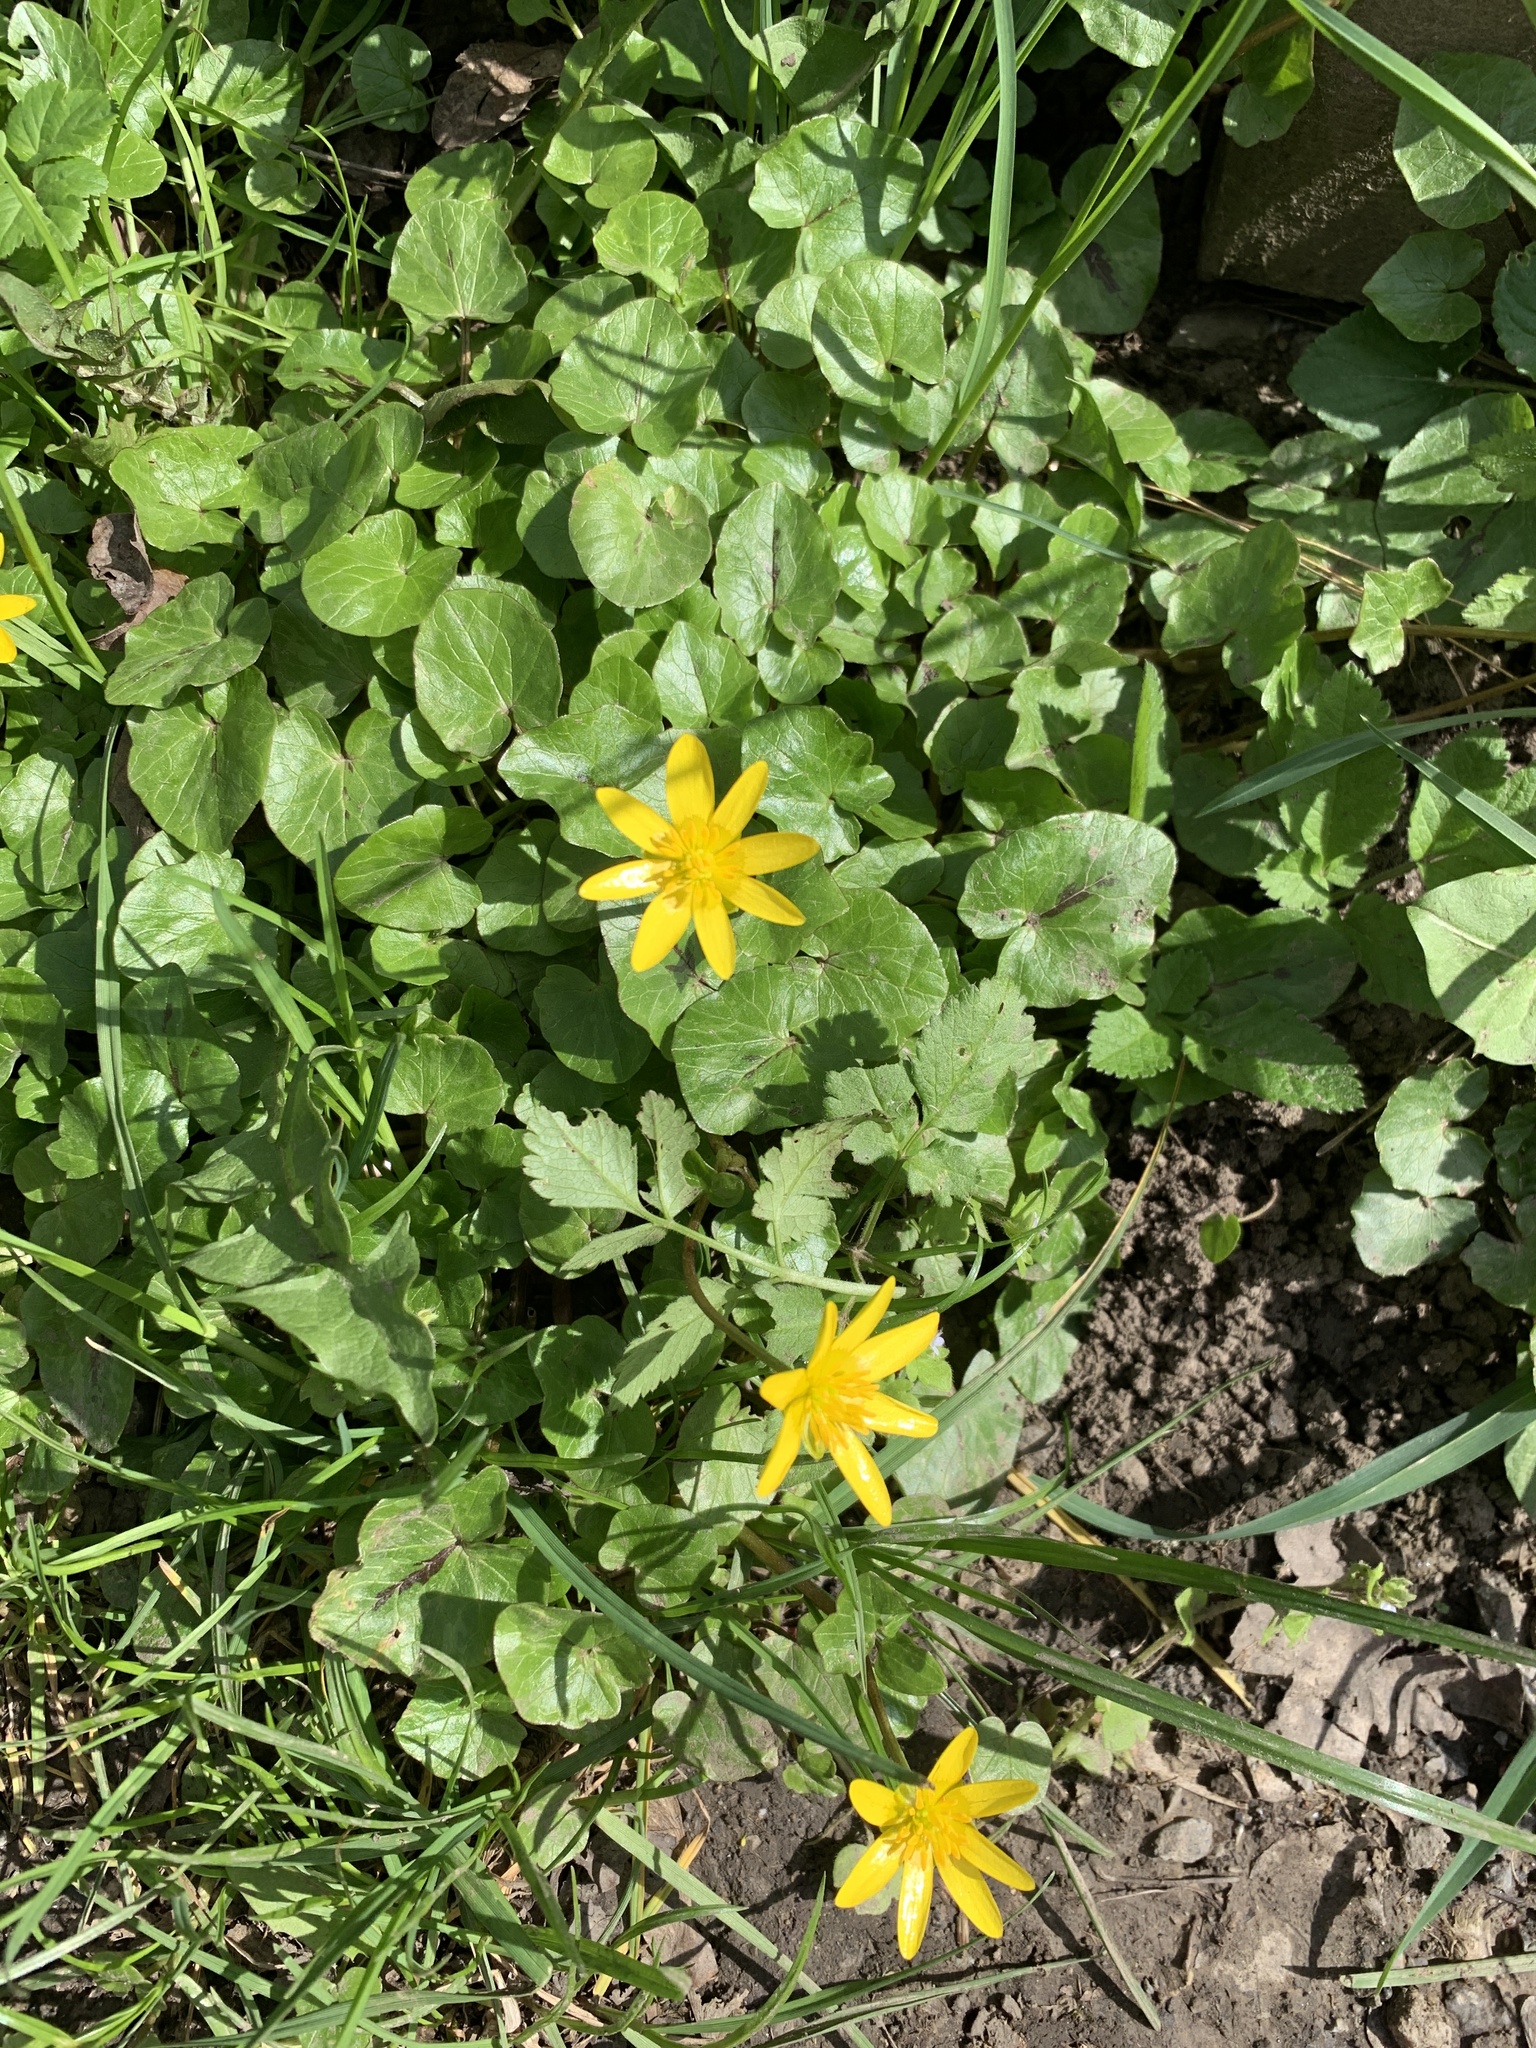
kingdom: Plantae
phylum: Tracheophyta
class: Magnoliopsida
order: Ranunculales
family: Ranunculaceae
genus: Ficaria
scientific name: Ficaria verna
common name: Lesser celandine
